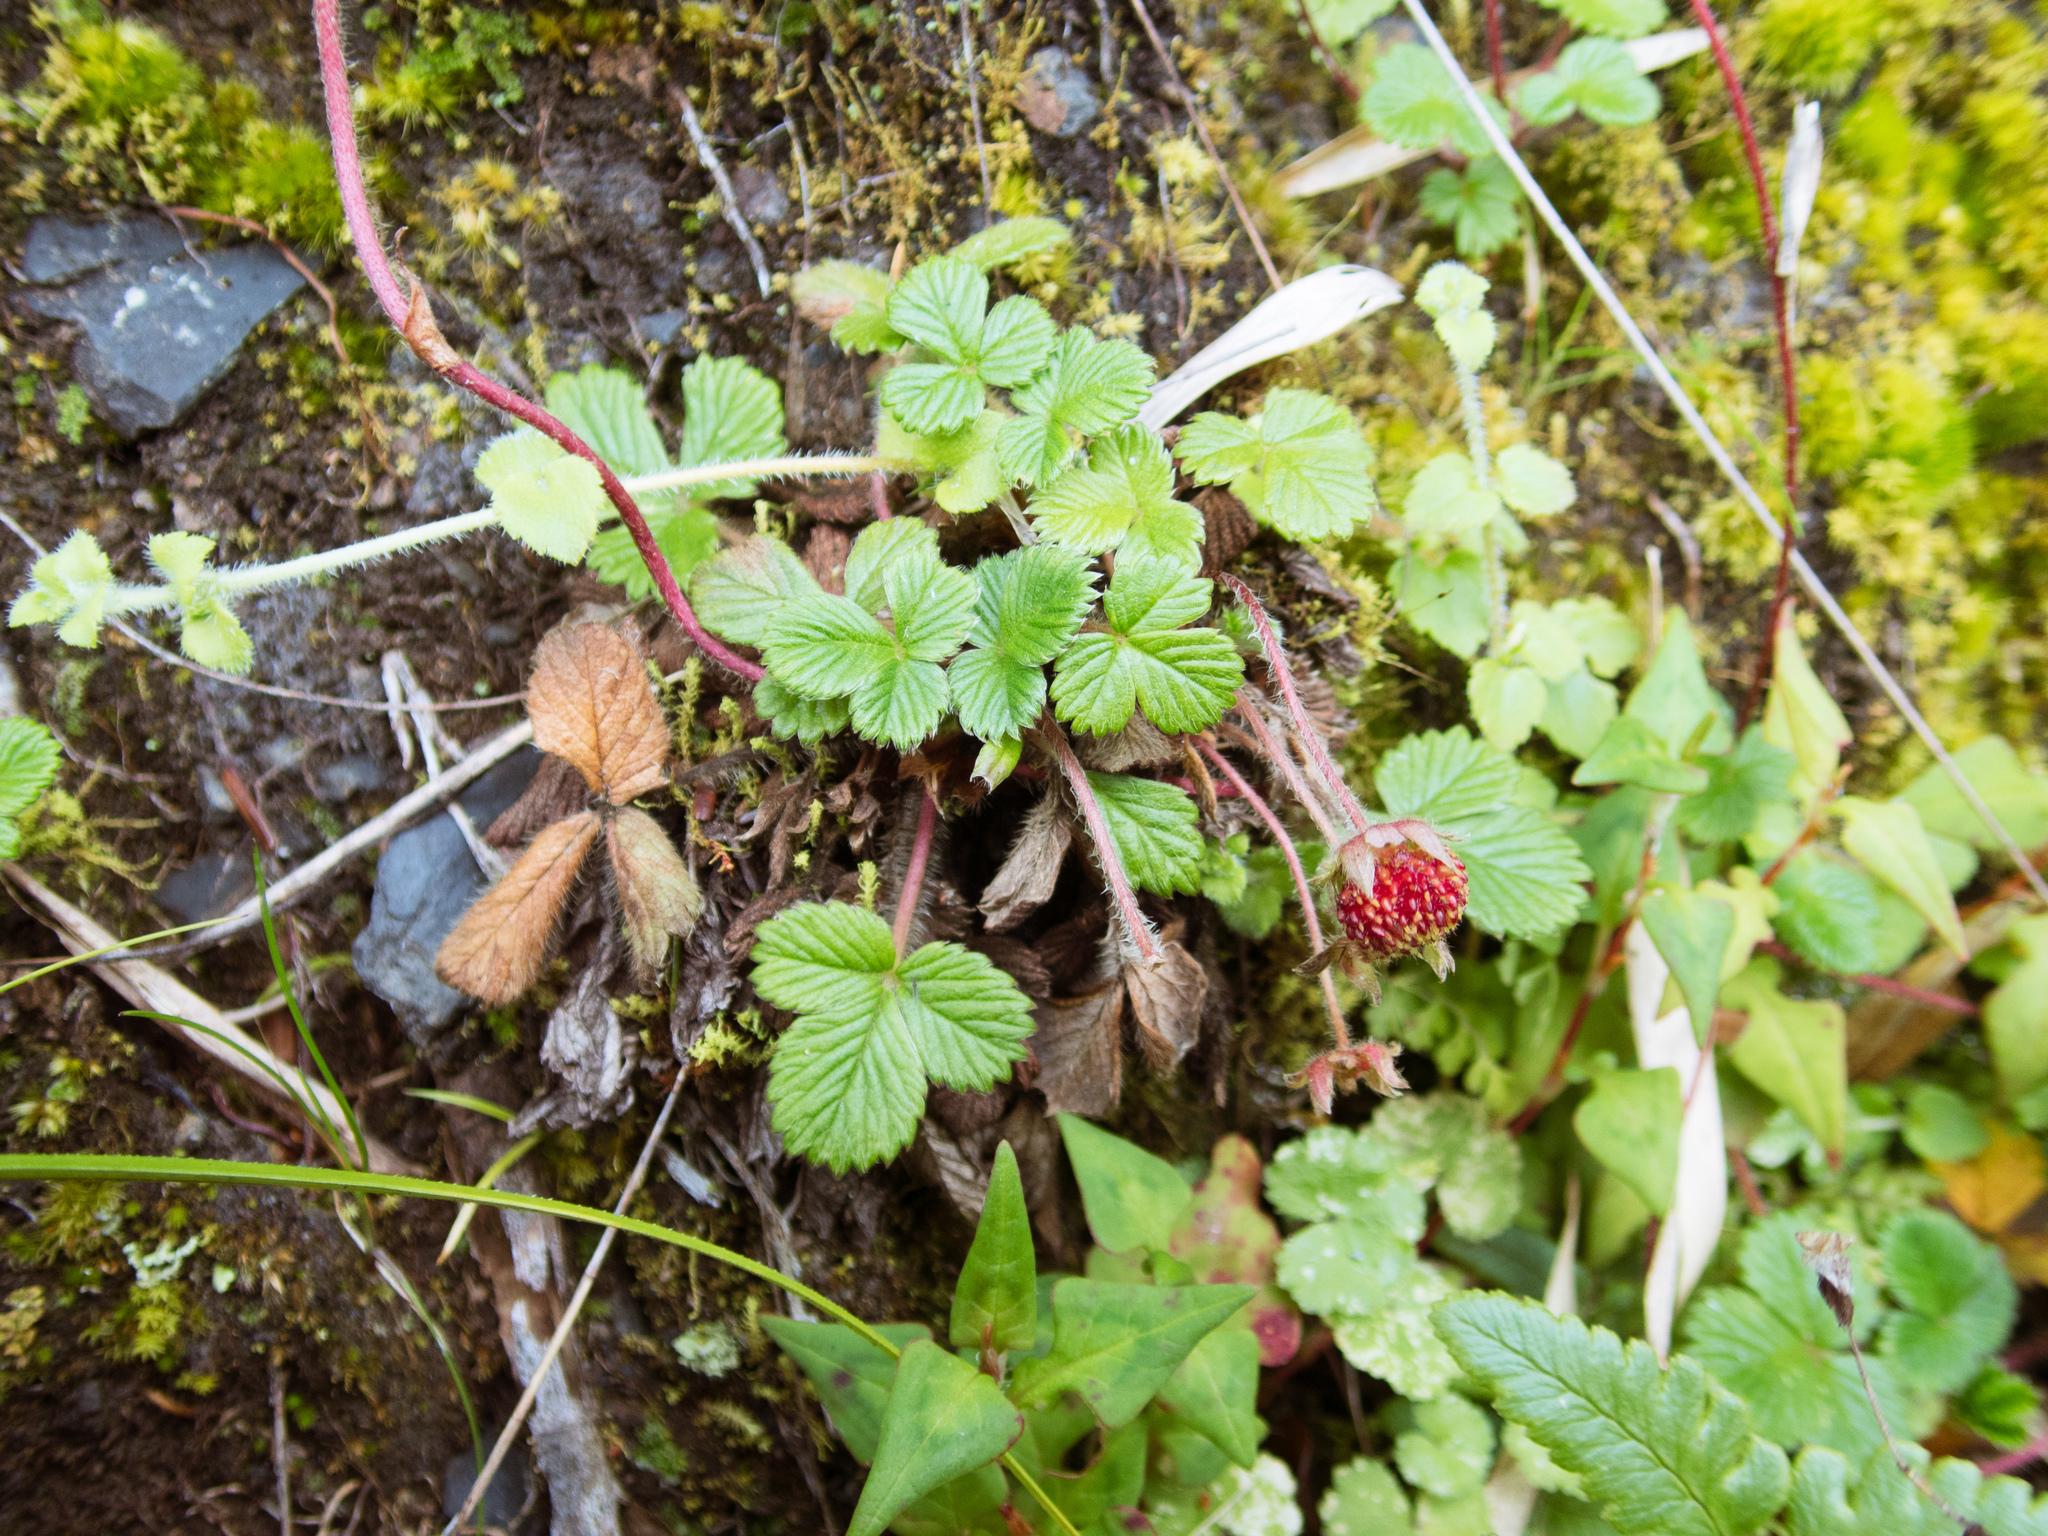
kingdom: Plantae
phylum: Tracheophyta
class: Magnoliopsida
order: Rosales
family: Rosaceae
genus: Fragaria
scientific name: Fragaria nilgerrensis
